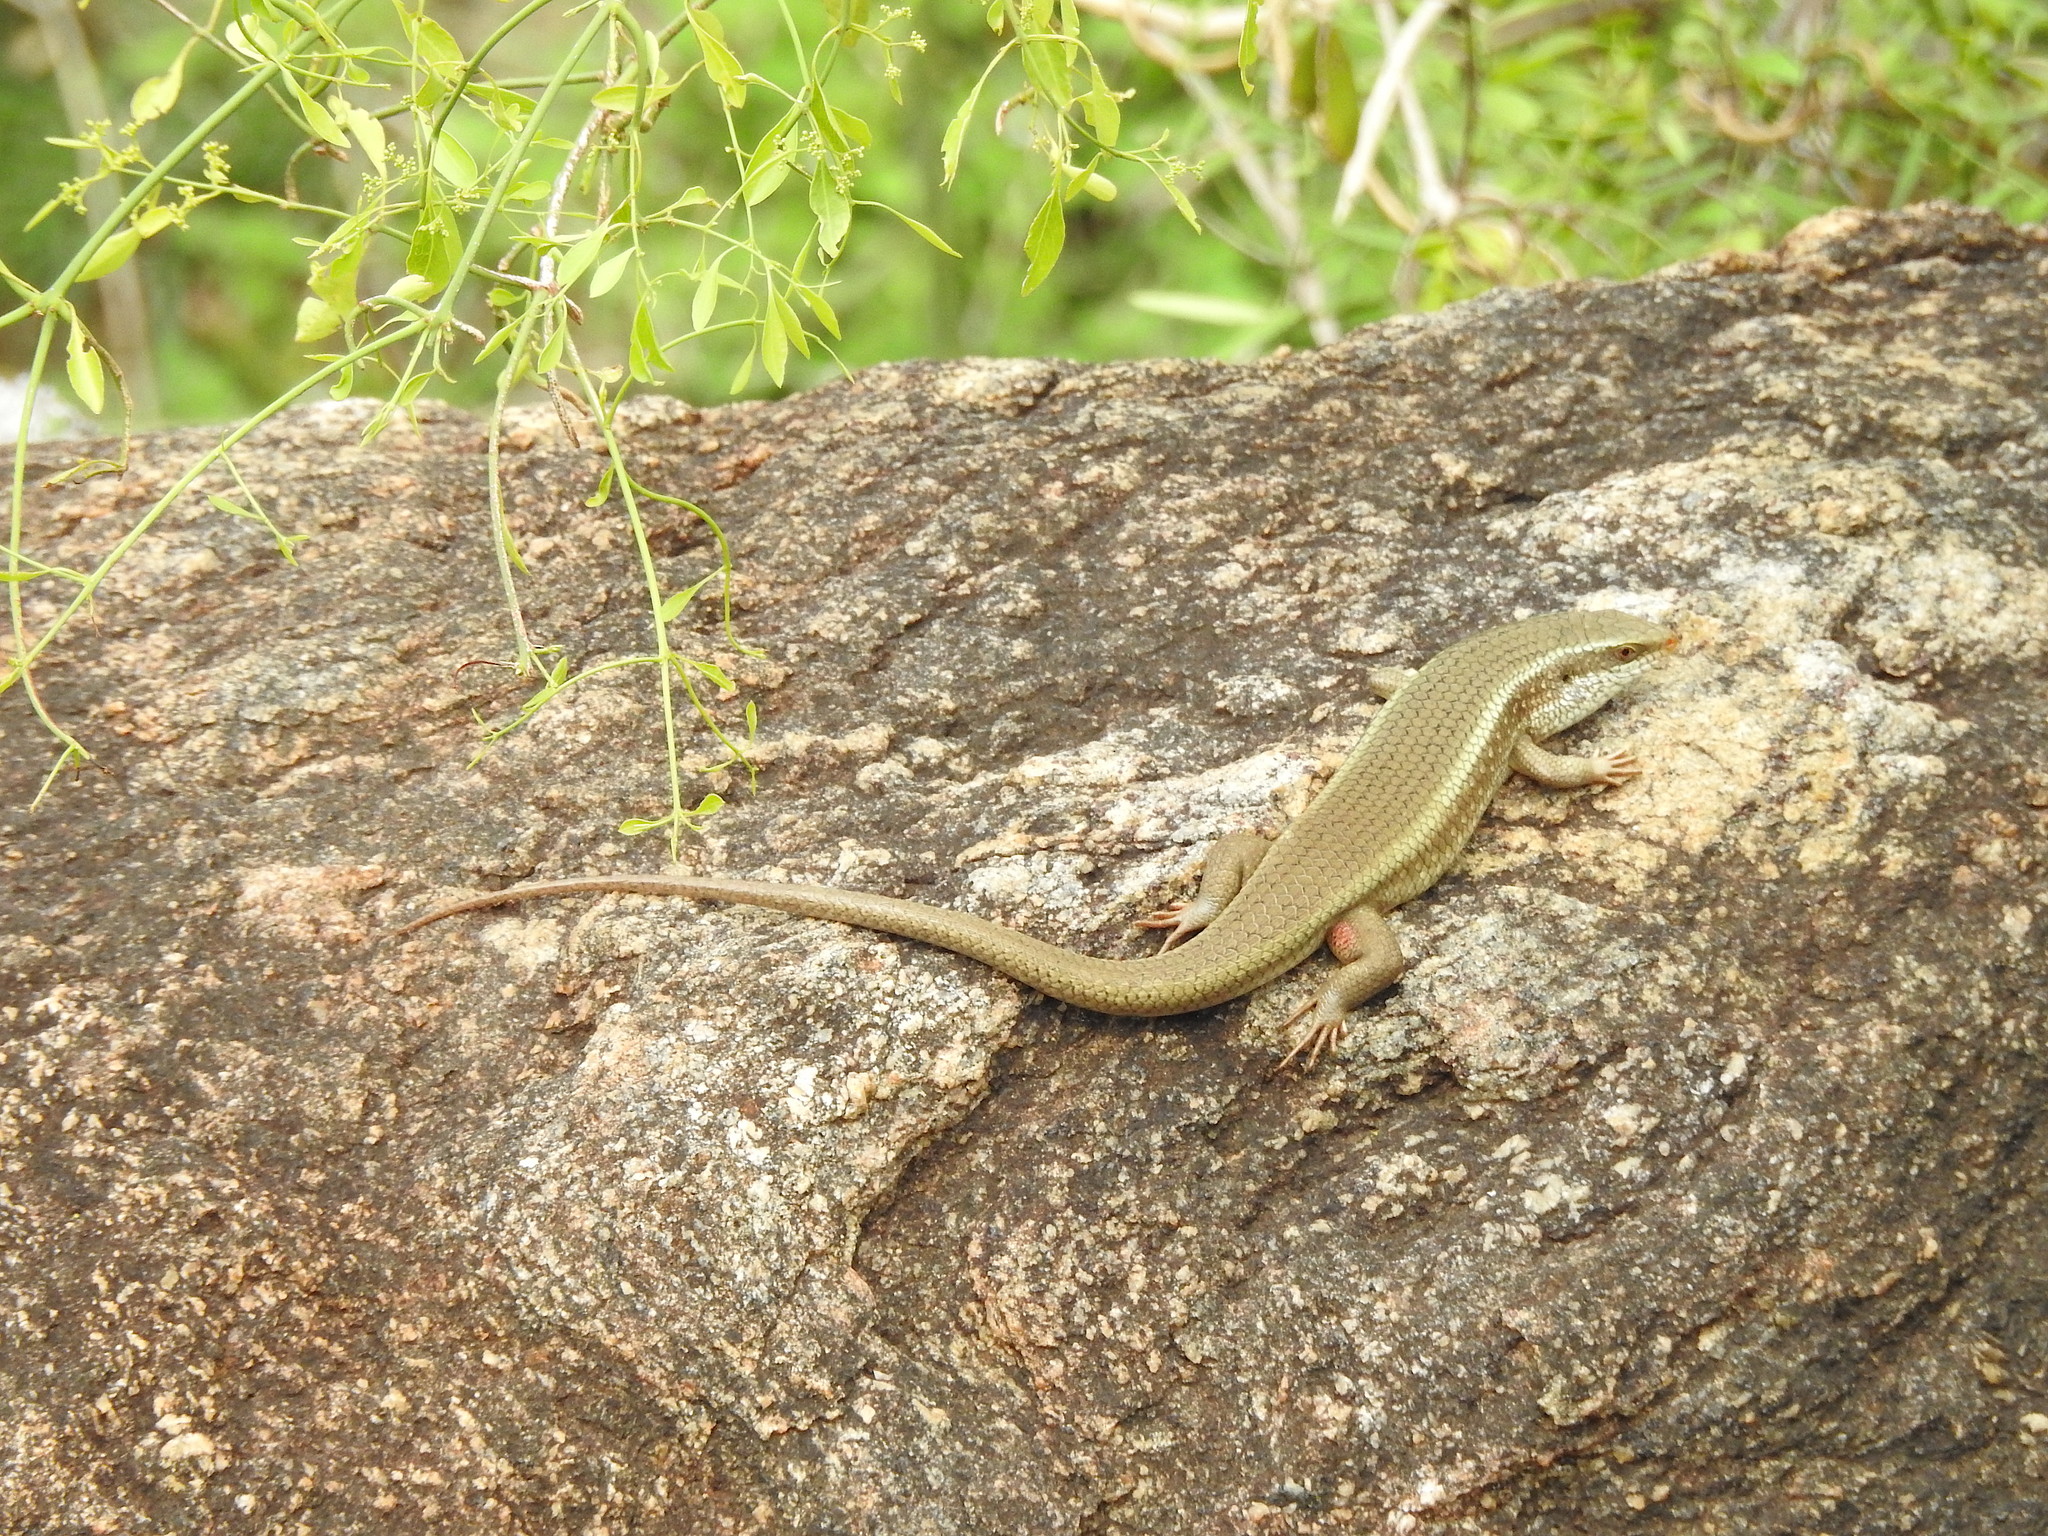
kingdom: Animalia
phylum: Chordata
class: Squamata
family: Scincidae
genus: Eutropis
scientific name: Eutropis carinata
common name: Keeled indian mabuya
